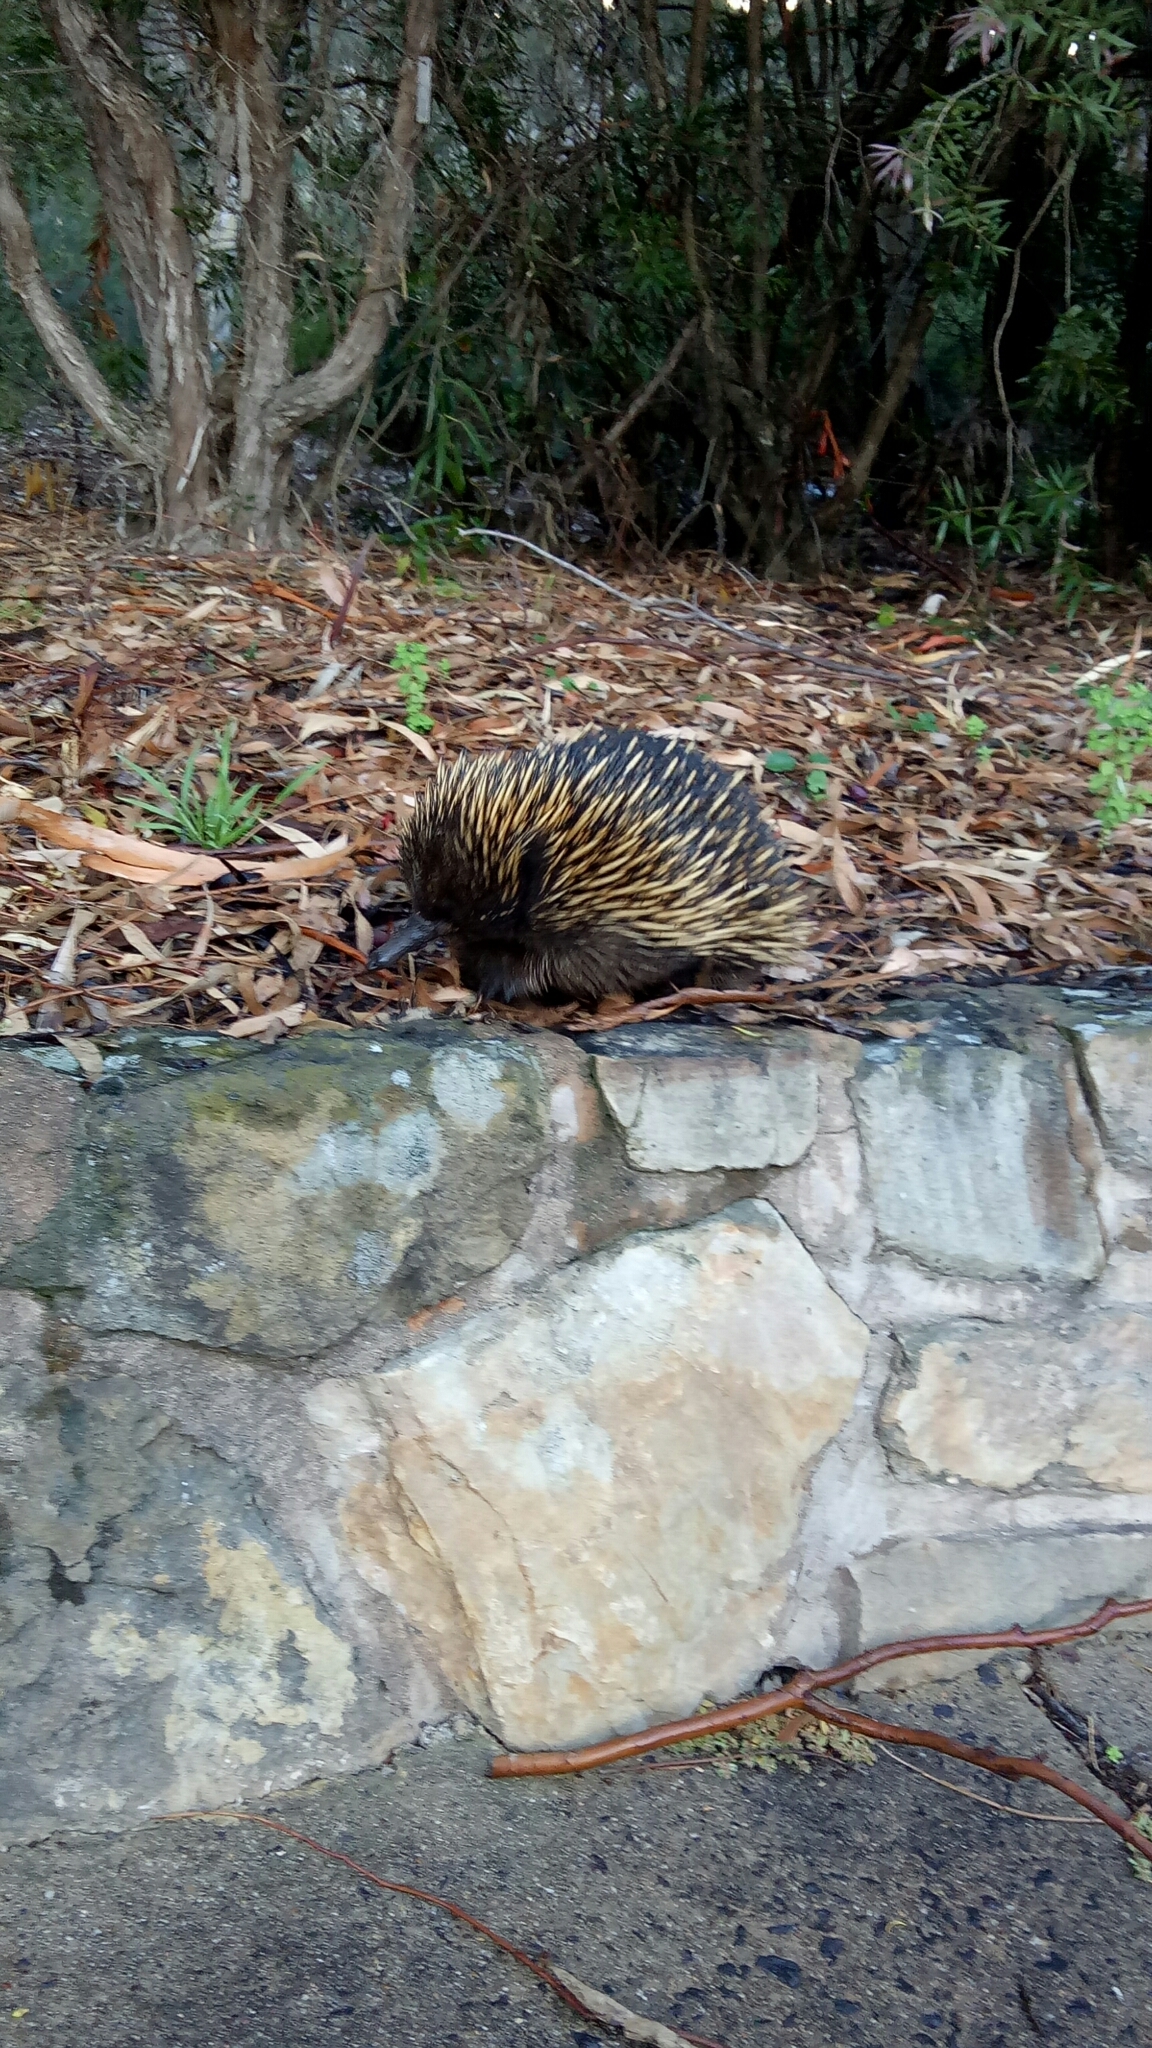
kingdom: Animalia
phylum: Chordata
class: Mammalia
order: Monotremata
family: Tachyglossidae
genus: Tachyglossus
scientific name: Tachyglossus aculeatus
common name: Short-beaked echidna
